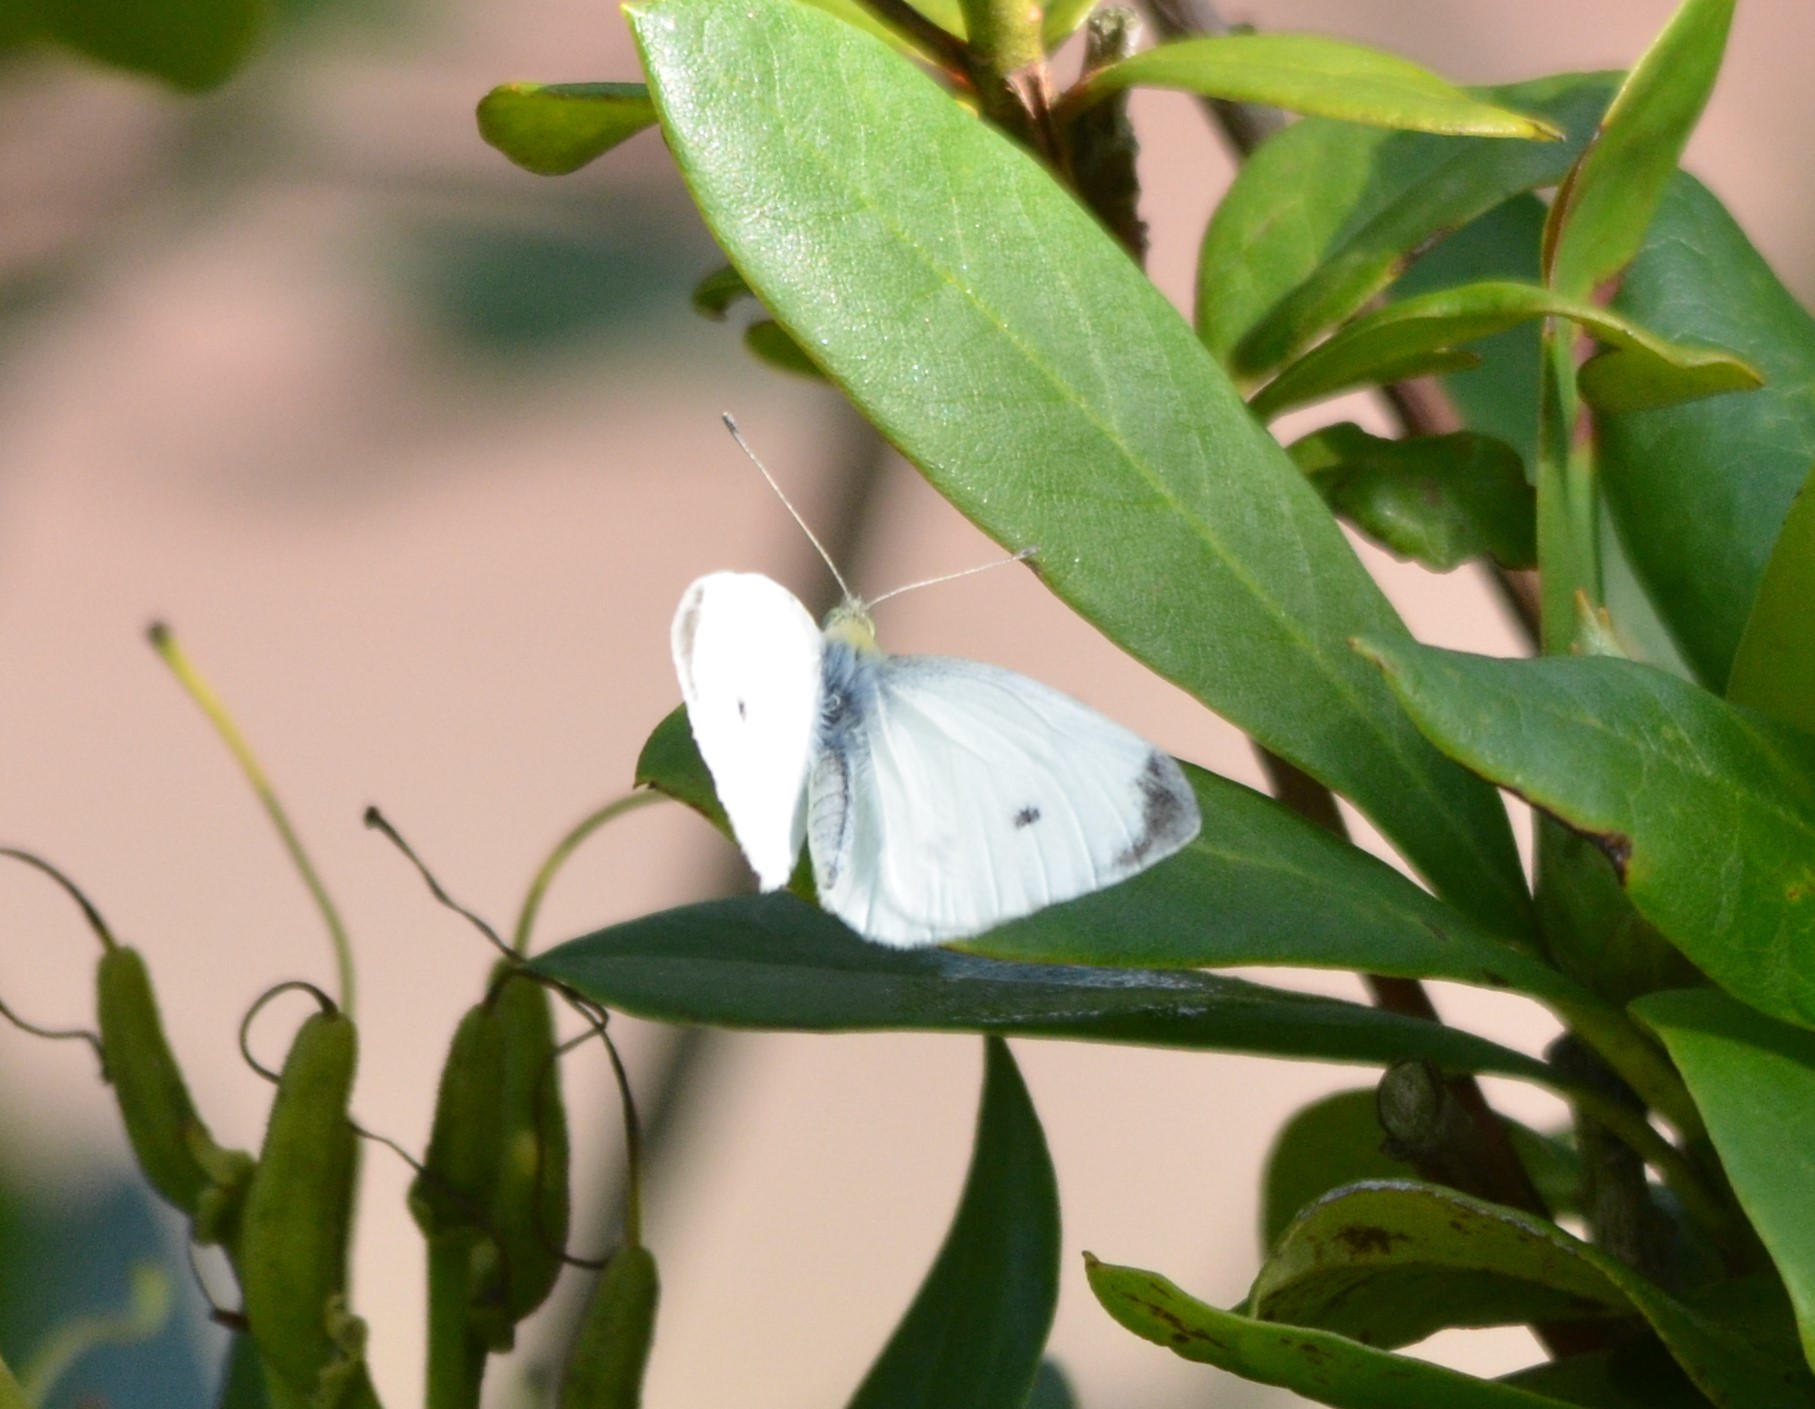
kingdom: Animalia
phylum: Arthropoda
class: Insecta
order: Lepidoptera
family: Pieridae
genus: Pieris
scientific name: Pieris rapae
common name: Small white
